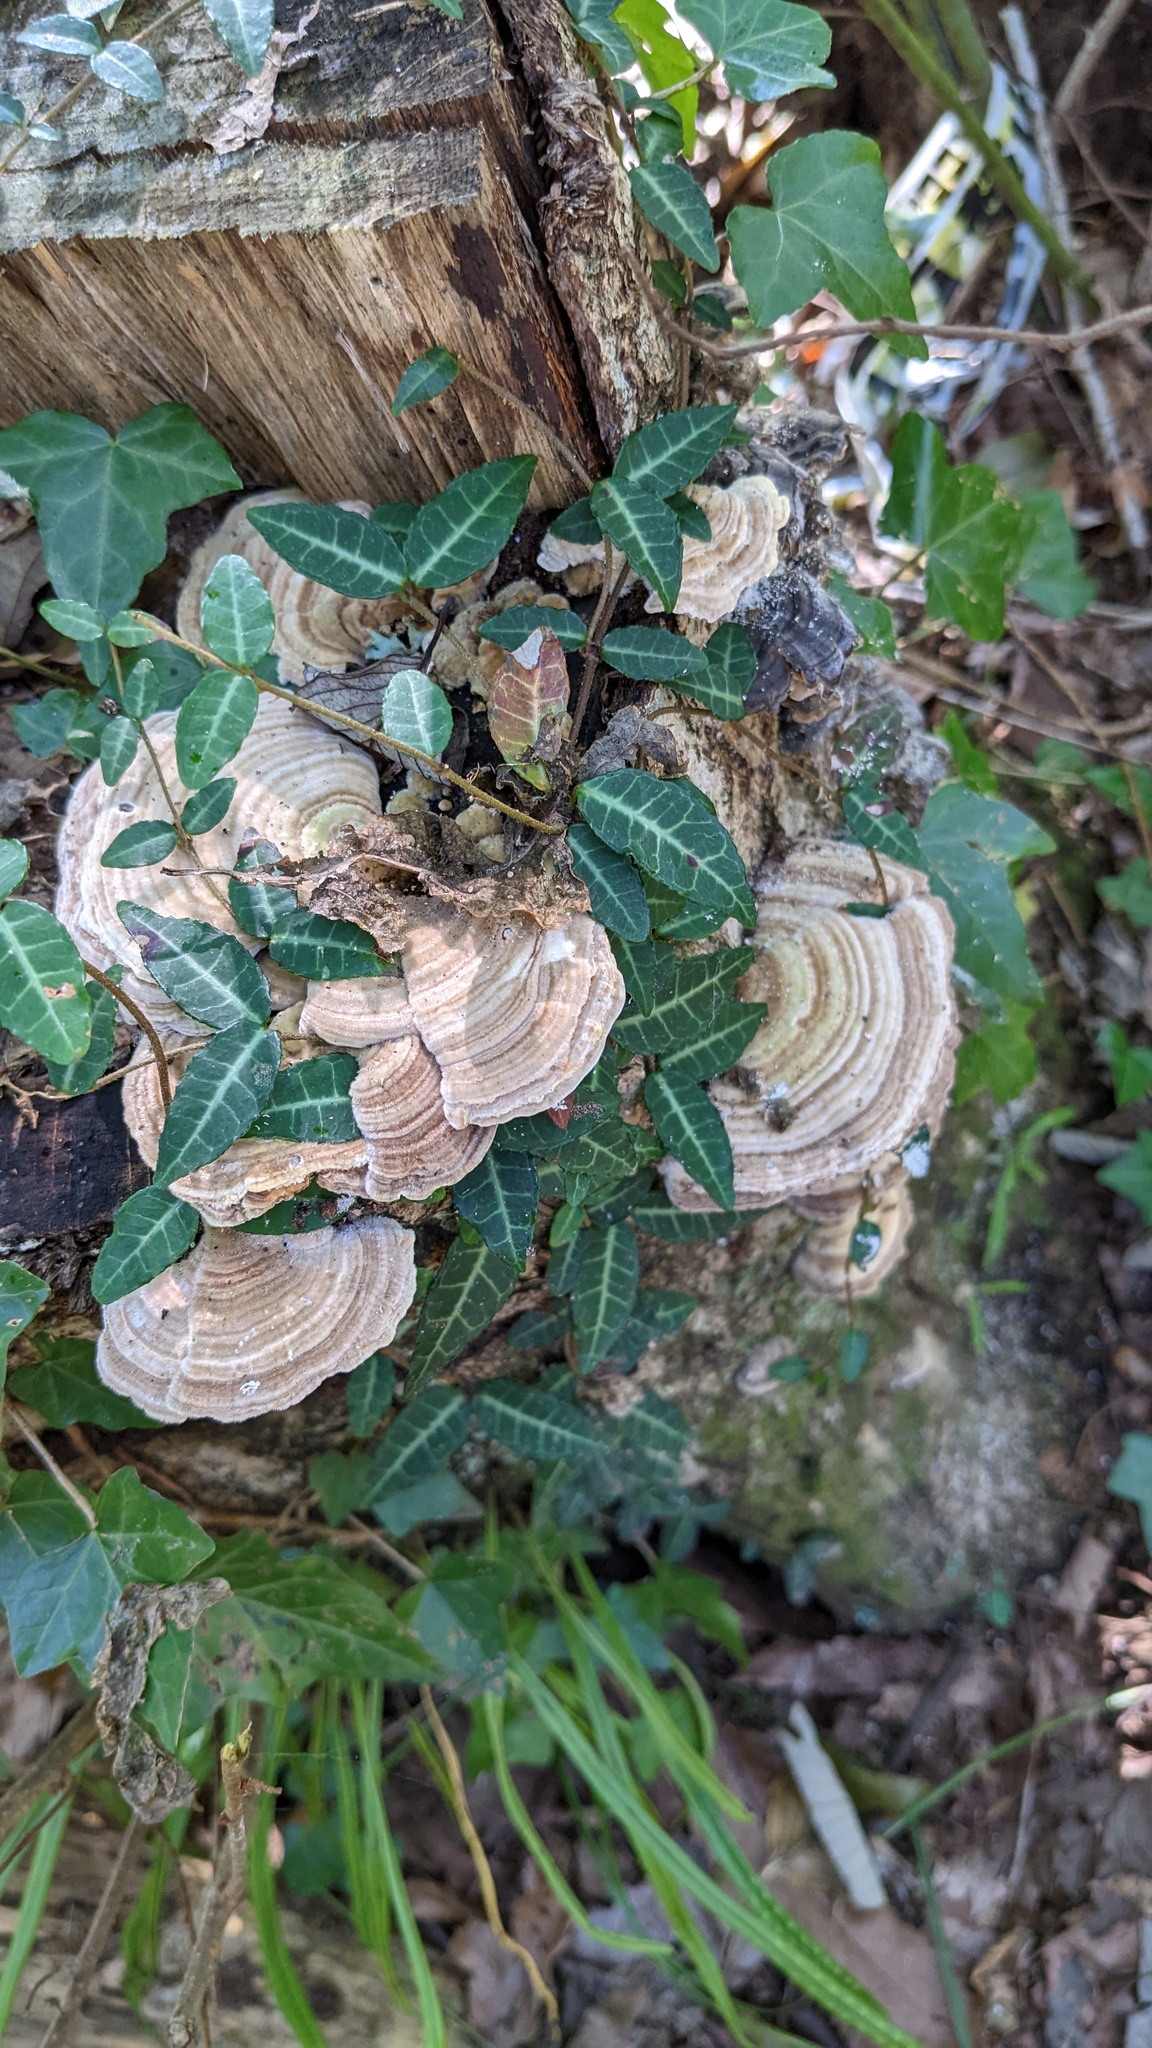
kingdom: Fungi
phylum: Basidiomycota
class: Agaricomycetes
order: Polyporales
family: Polyporaceae
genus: Lenzites
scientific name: Lenzites betulinus
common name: Birch mazegill
